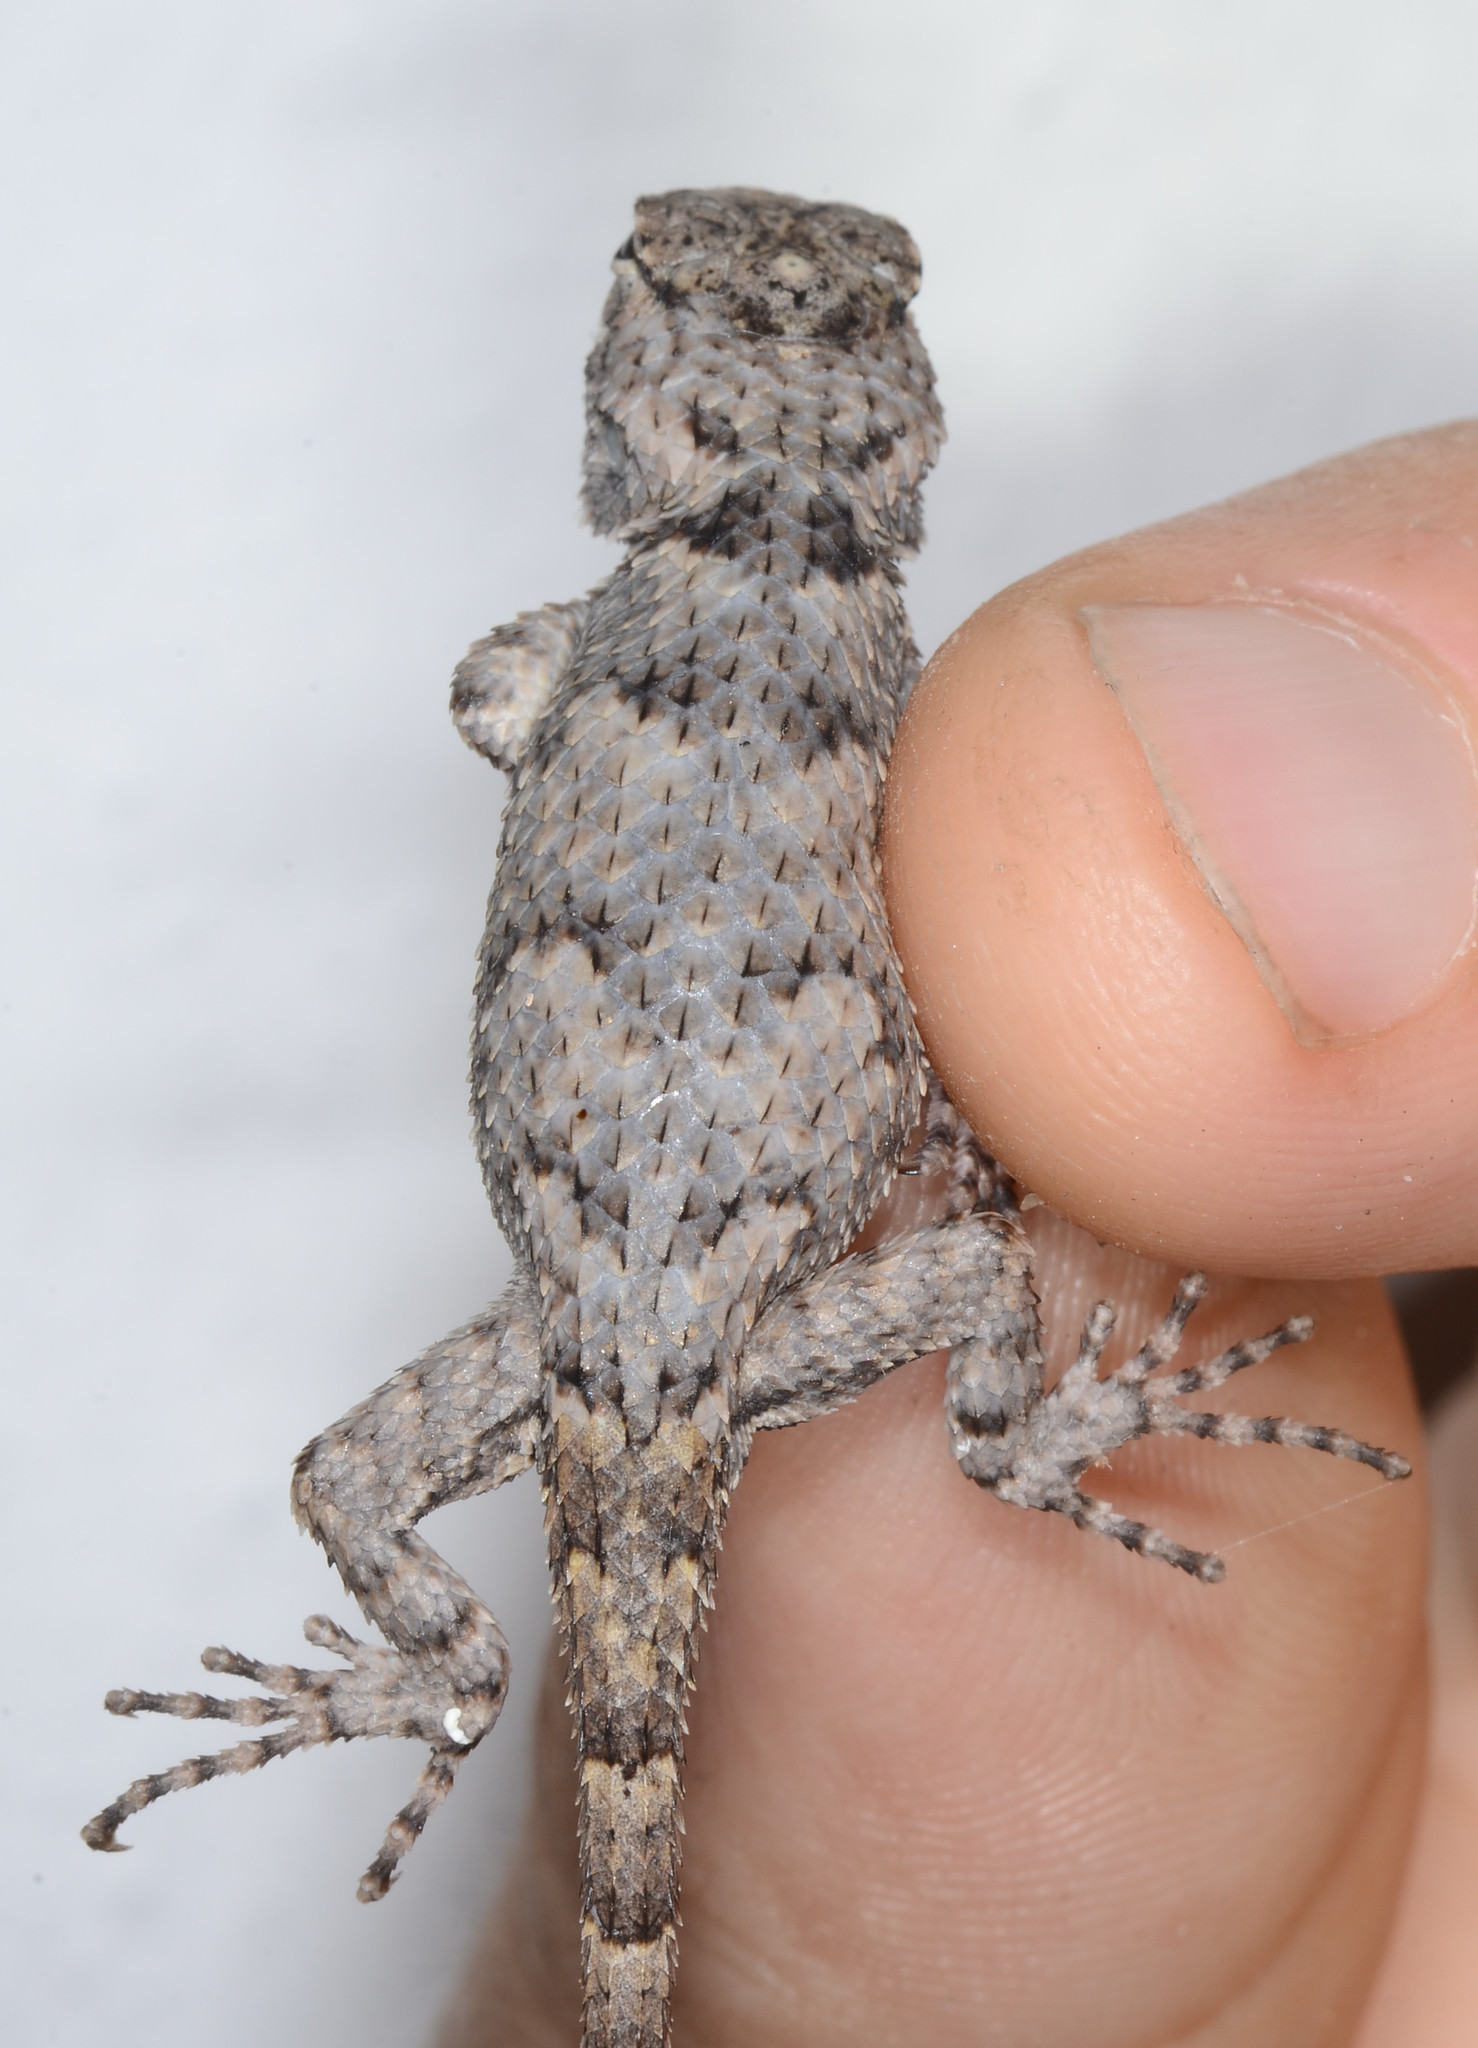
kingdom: Animalia
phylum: Chordata
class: Squamata
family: Phrynosomatidae
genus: Sceloporus
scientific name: Sceloporus melanorhinus
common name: Black-nosed lizard
